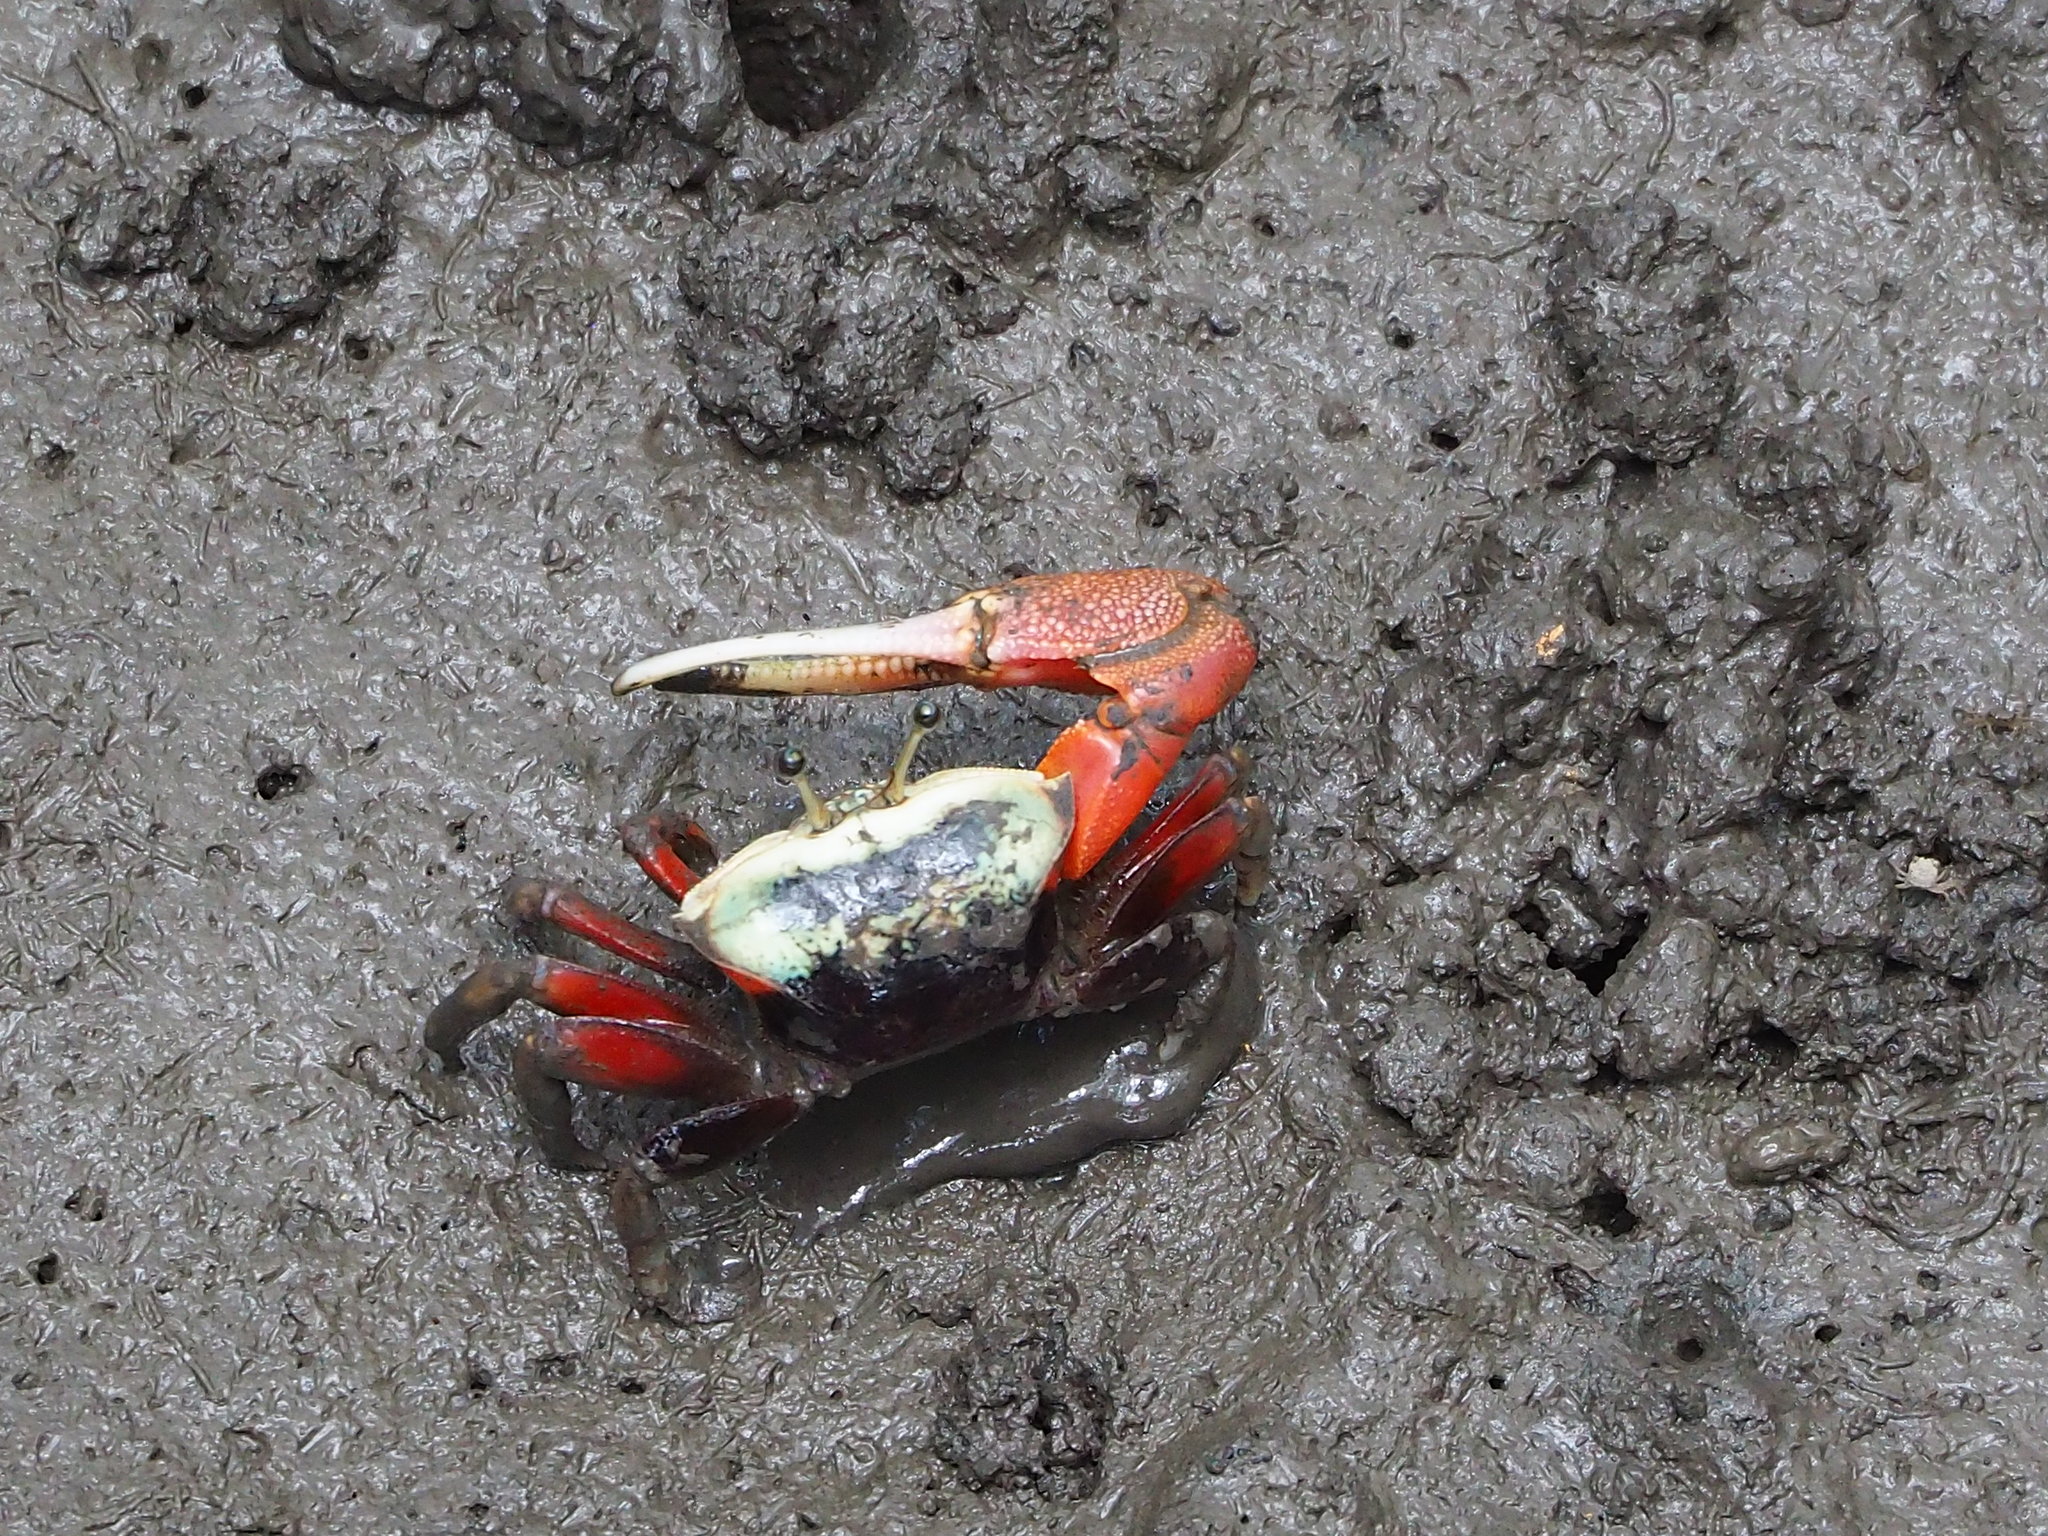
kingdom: Animalia
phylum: Arthropoda
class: Malacostraca
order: Decapoda
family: Ocypodidae
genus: Tubuca
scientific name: Tubuca arcuata
